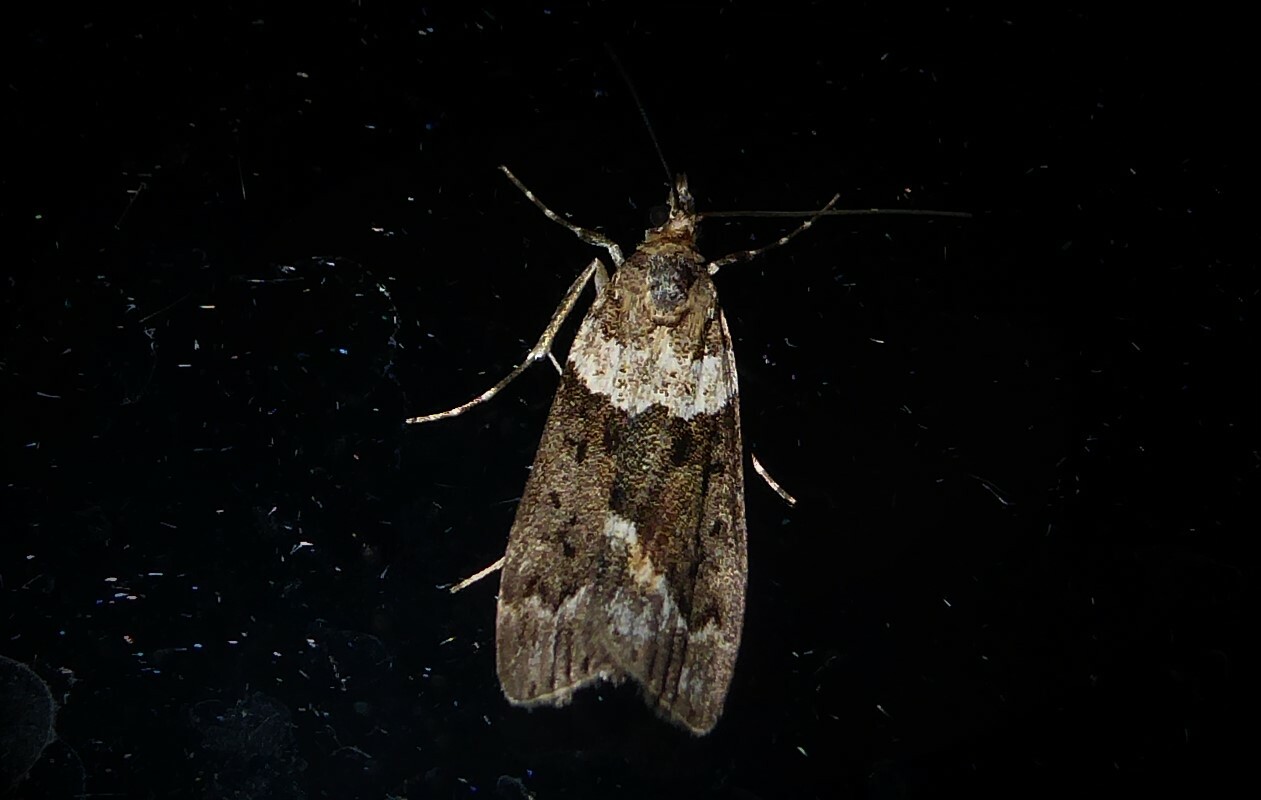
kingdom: Animalia
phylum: Arthropoda
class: Insecta
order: Lepidoptera
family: Crambidae
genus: Eudonia
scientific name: Eudonia submarginalis
